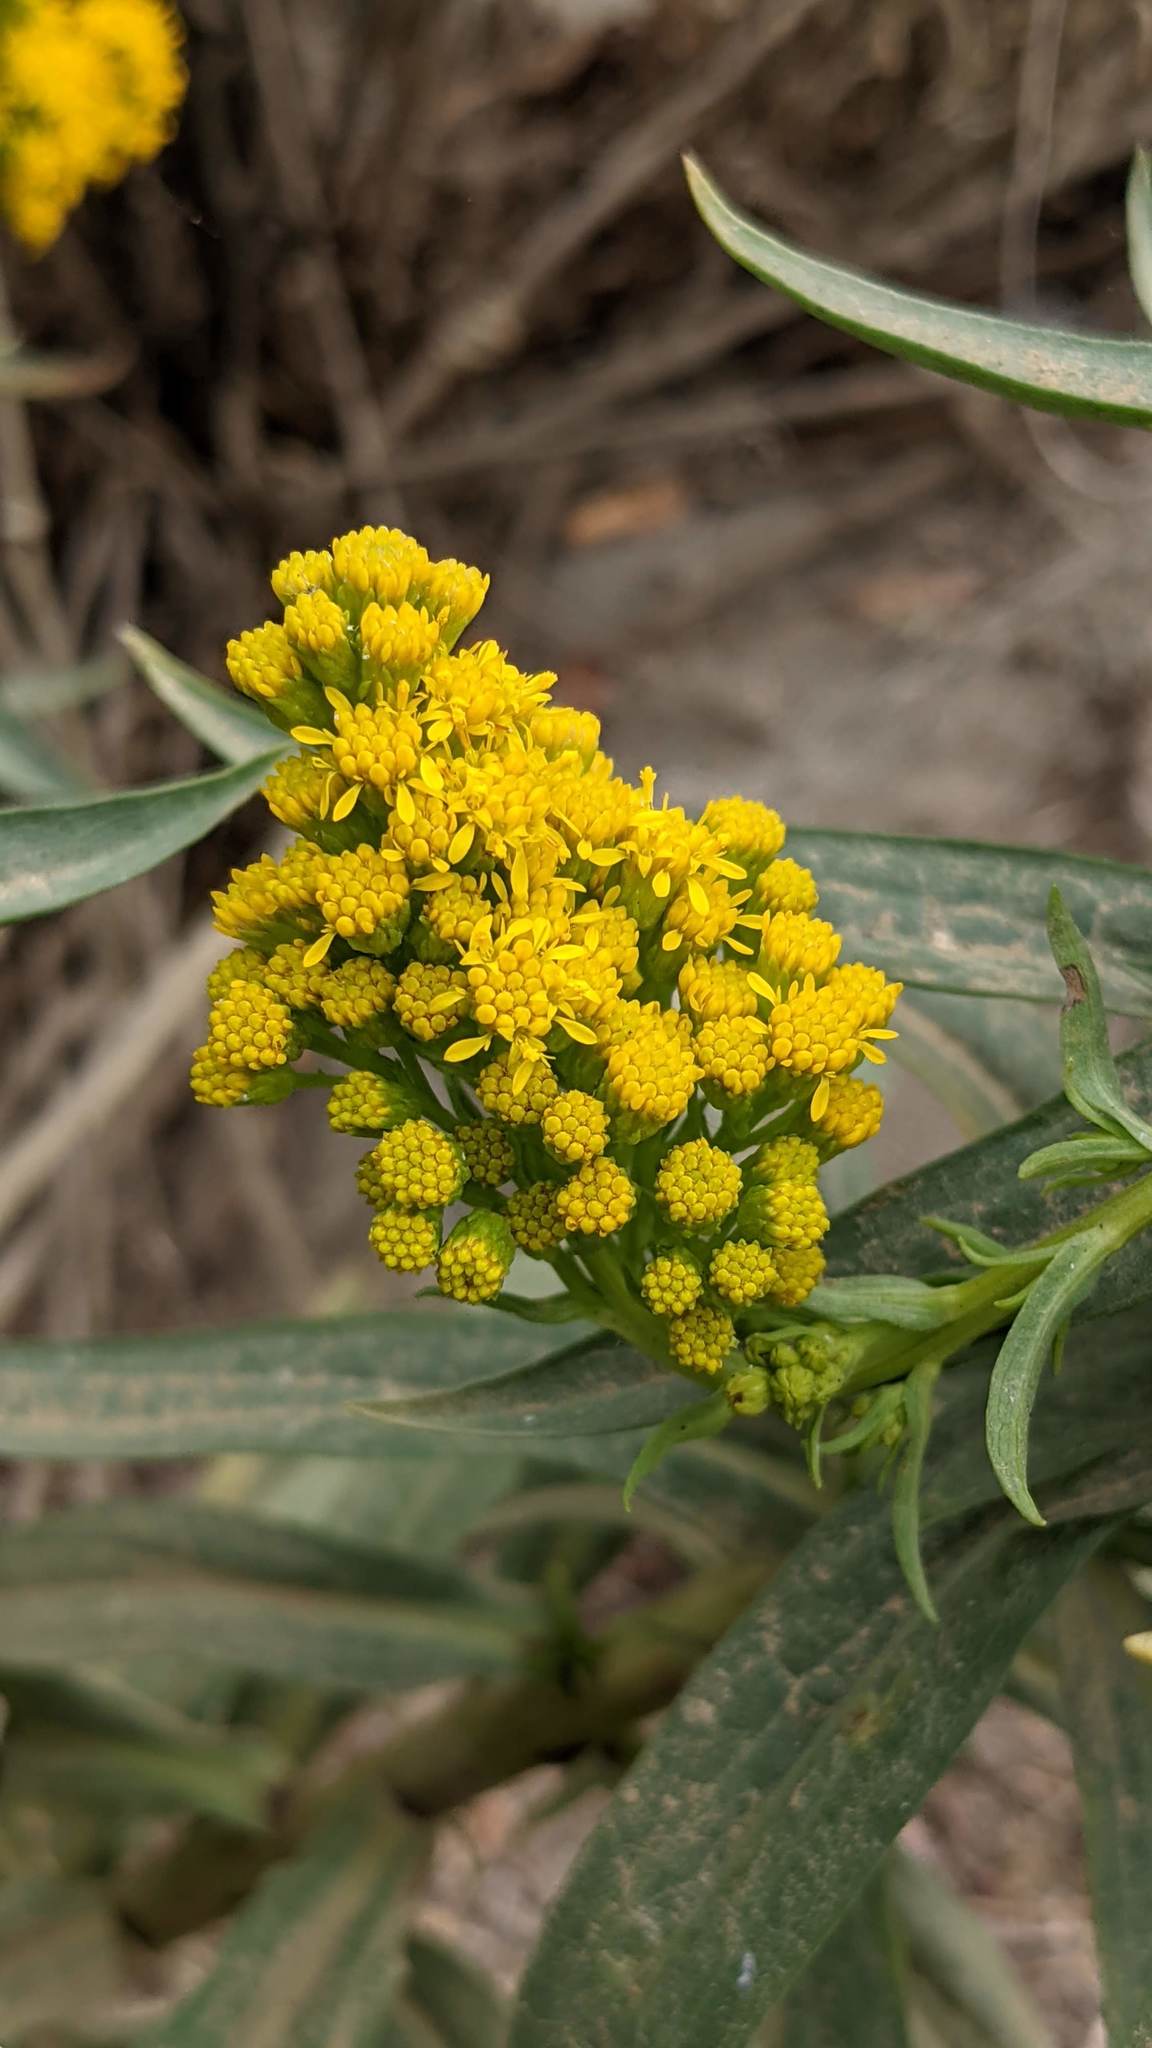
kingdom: Plantae
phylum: Tracheophyta
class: Magnoliopsida
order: Asterales
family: Asteraceae
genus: Solidago
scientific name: Solidago confinis
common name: Southern goldenrod
